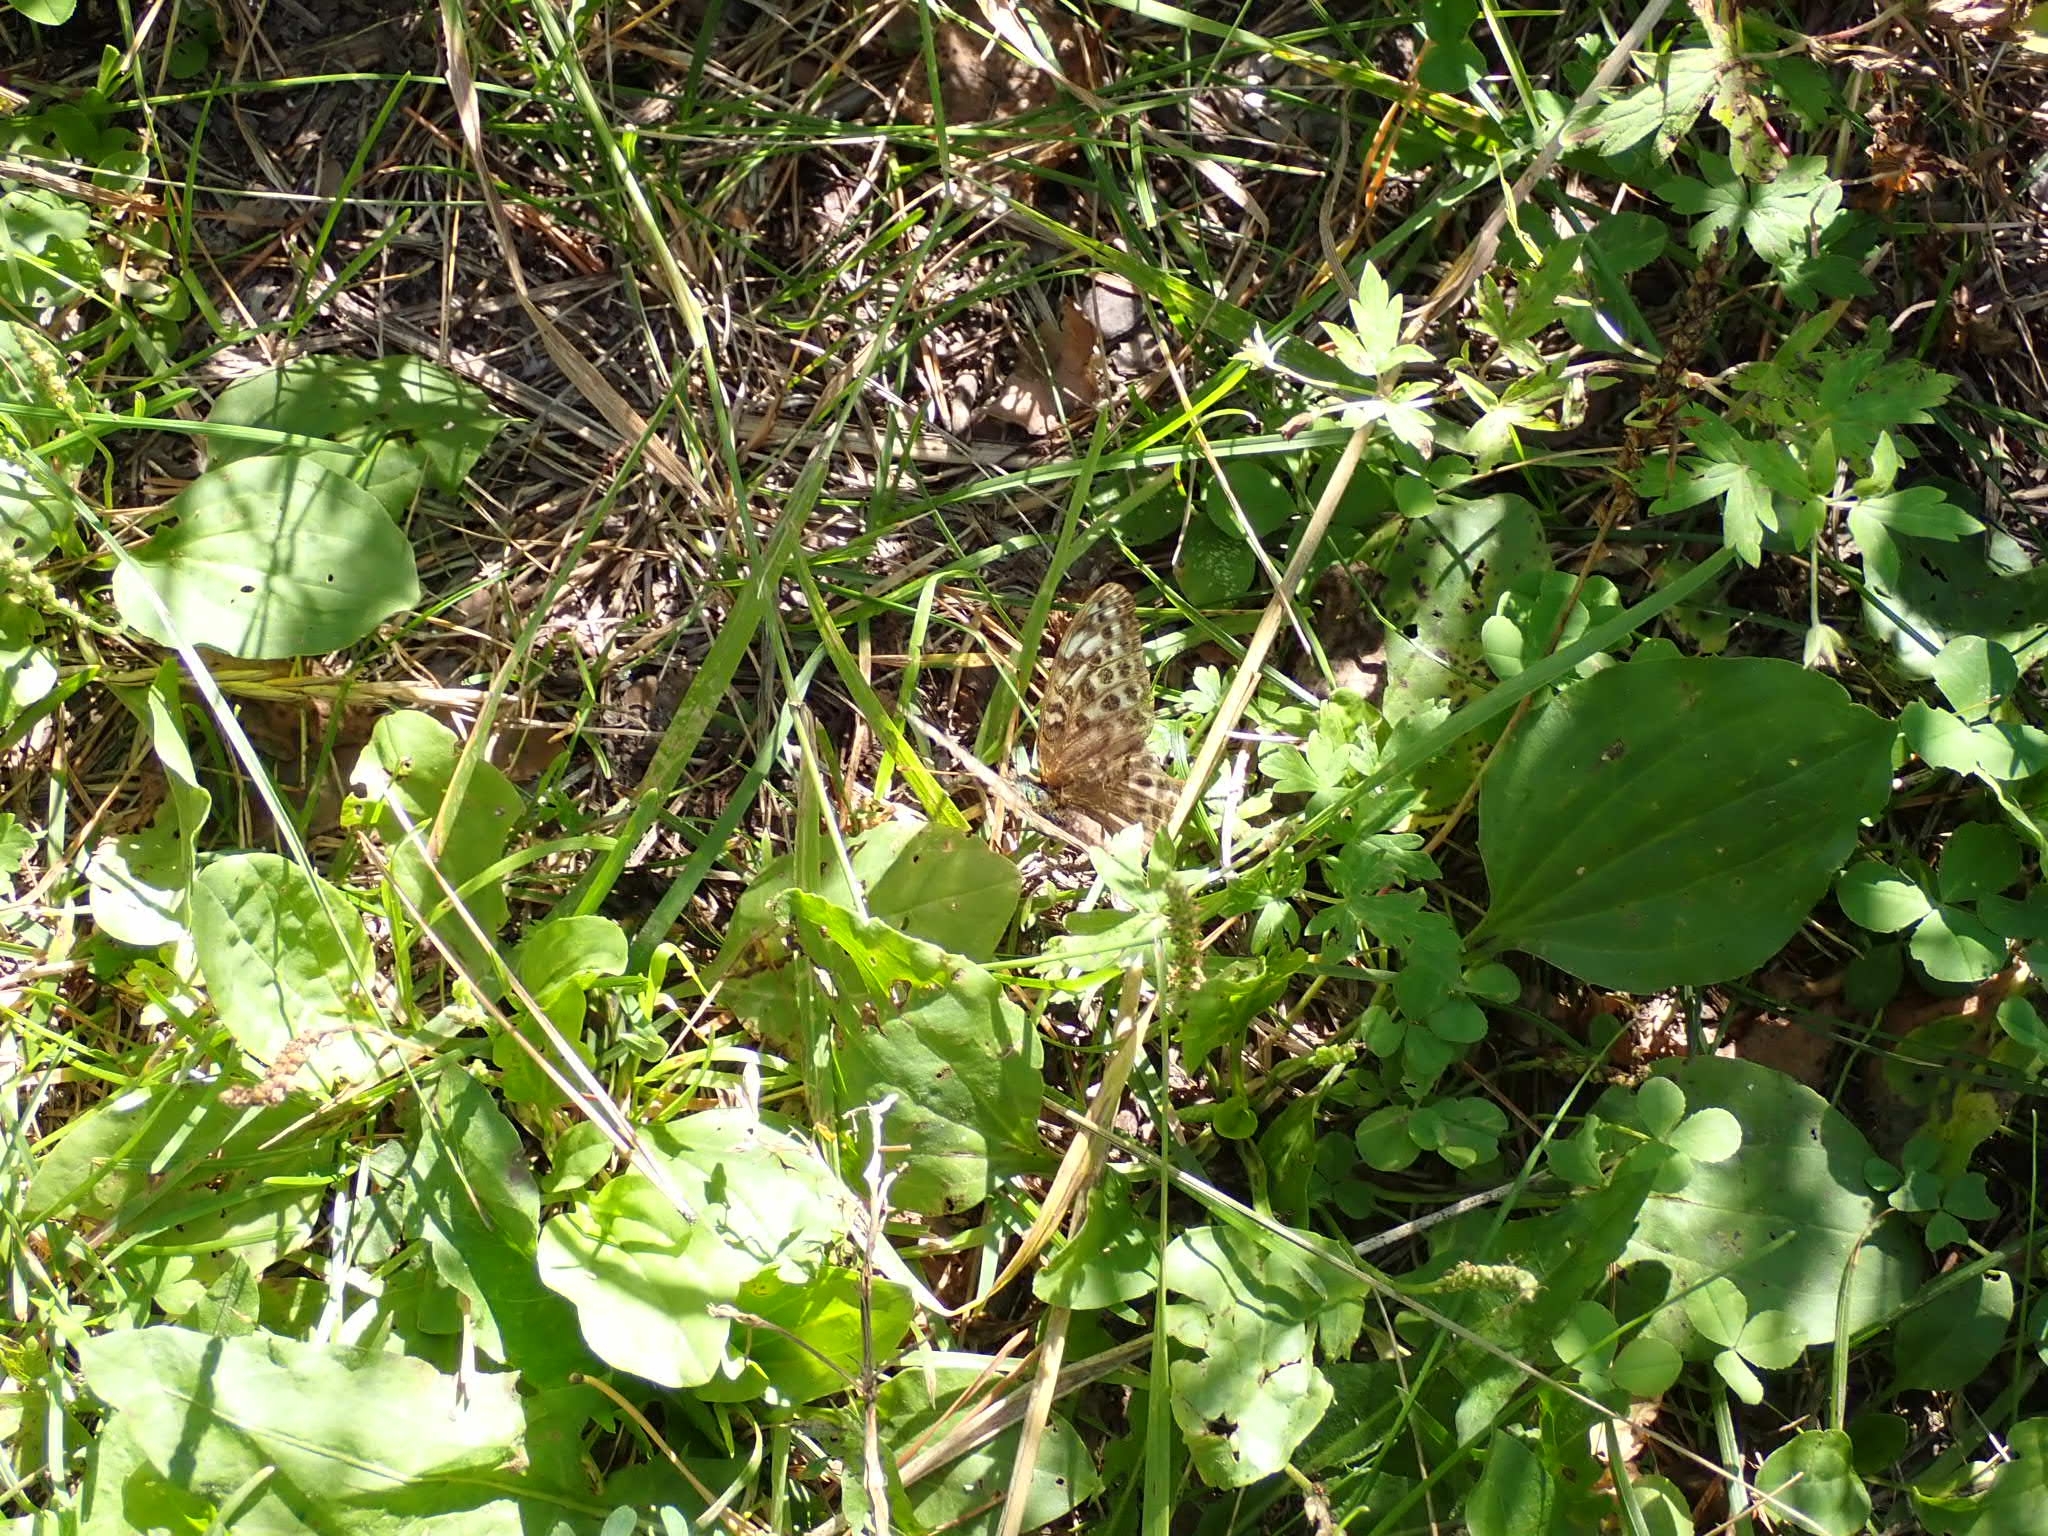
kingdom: Animalia
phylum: Arthropoda
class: Insecta
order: Lepidoptera
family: Nymphalidae
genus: Argynnis
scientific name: Argynnis paphia
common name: Silver-washed fritillary
